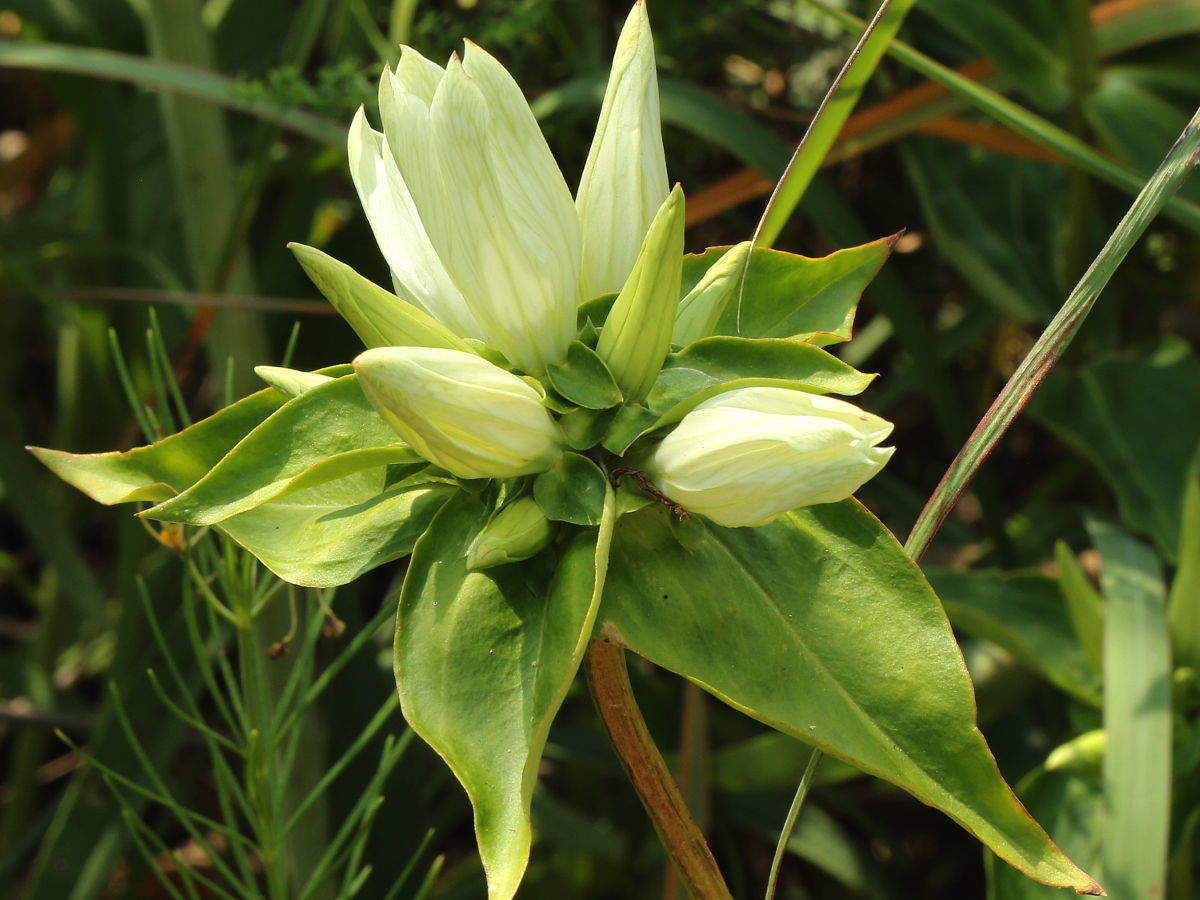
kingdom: Plantae
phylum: Tracheophyta
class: Magnoliopsida
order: Gentianales
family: Gentianaceae
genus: Gentiana
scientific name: Gentiana alba
